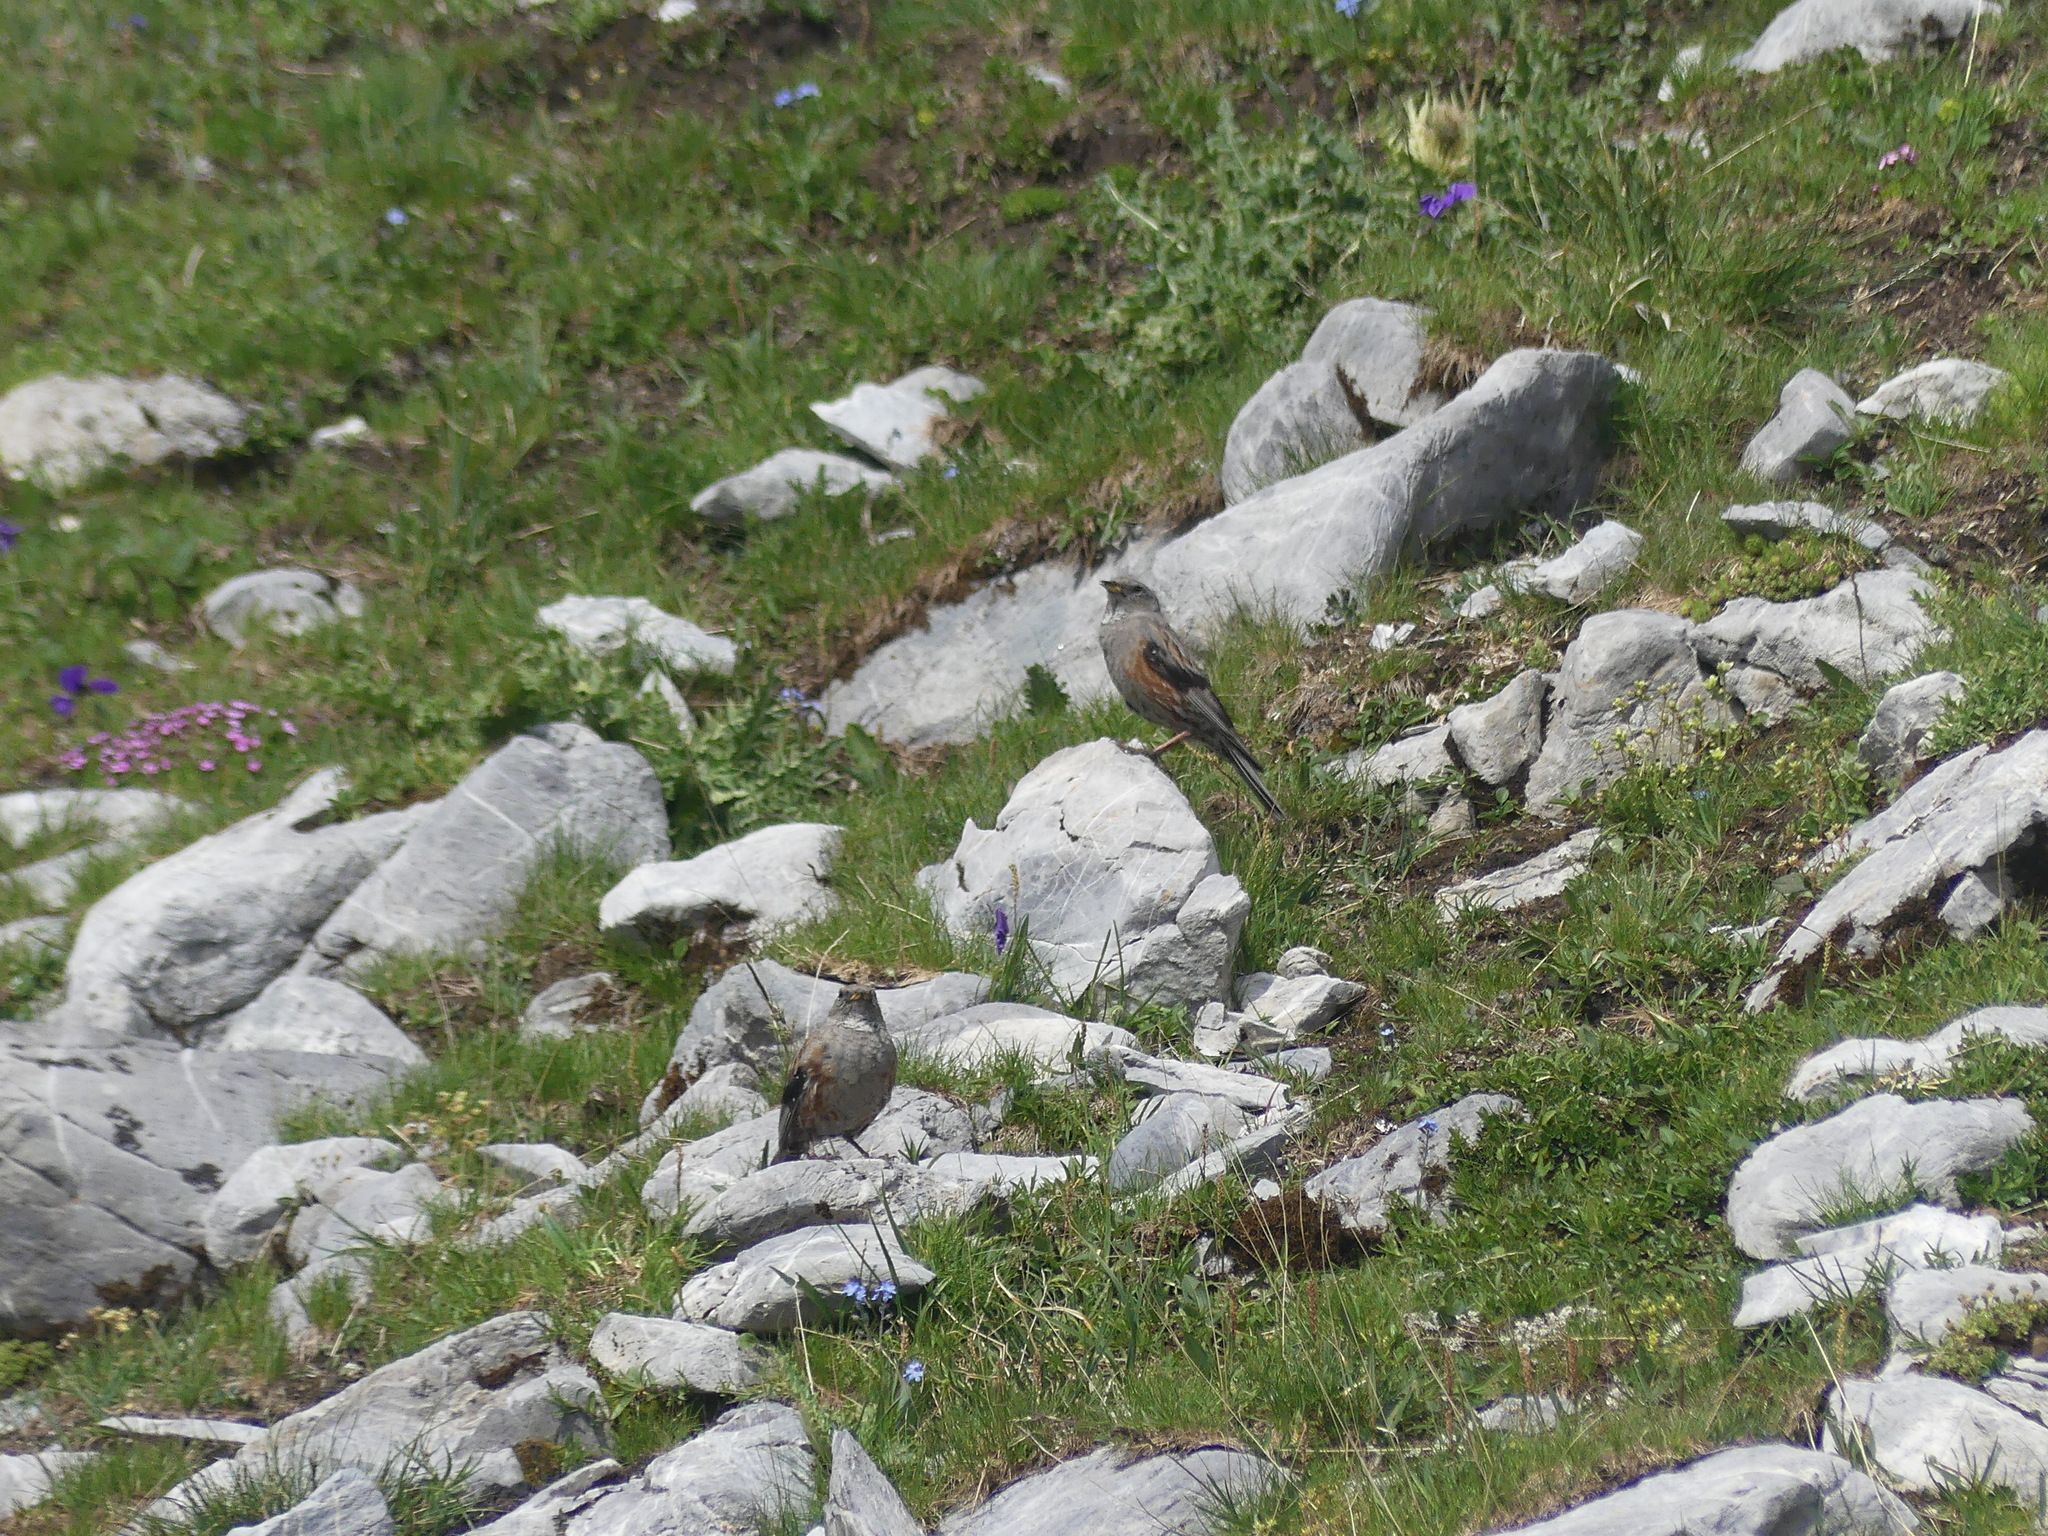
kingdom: Animalia
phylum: Chordata
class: Aves
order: Passeriformes
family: Prunellidae
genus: Prunella
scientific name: Prunella collaris
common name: Alpine accentor
